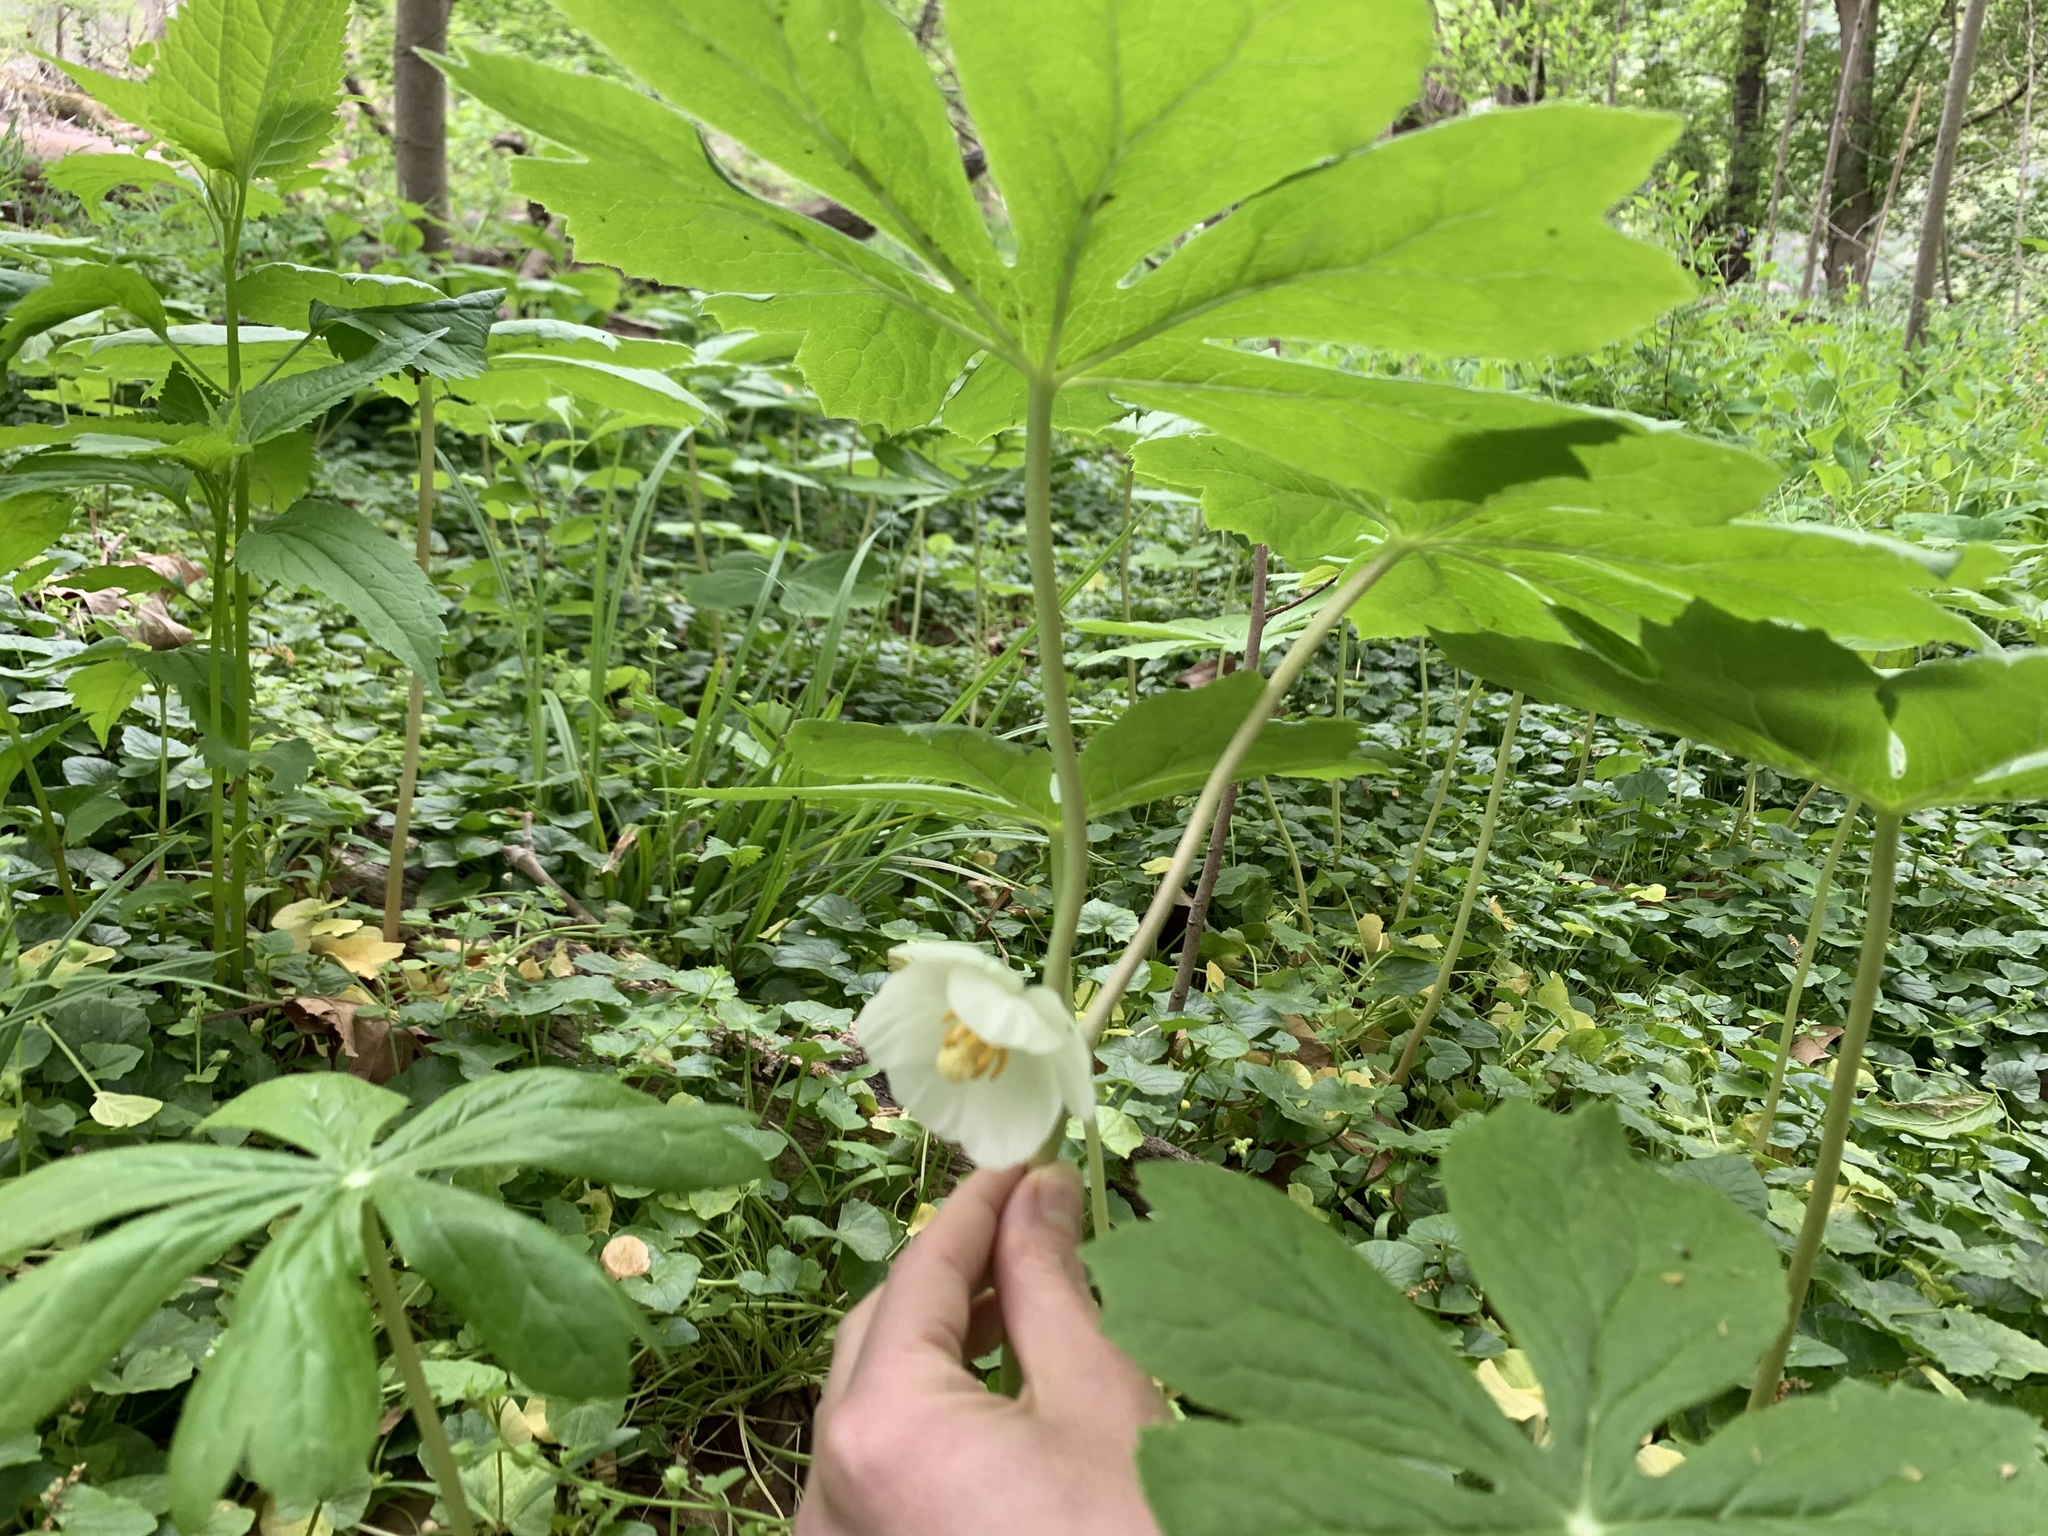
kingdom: Plantae
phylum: Tracheophyta
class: Magnoliopsida
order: Ranunculales
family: Berberidaceae
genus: Podophyllum
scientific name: Podophyllum peltatum
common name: Wild mandrake
